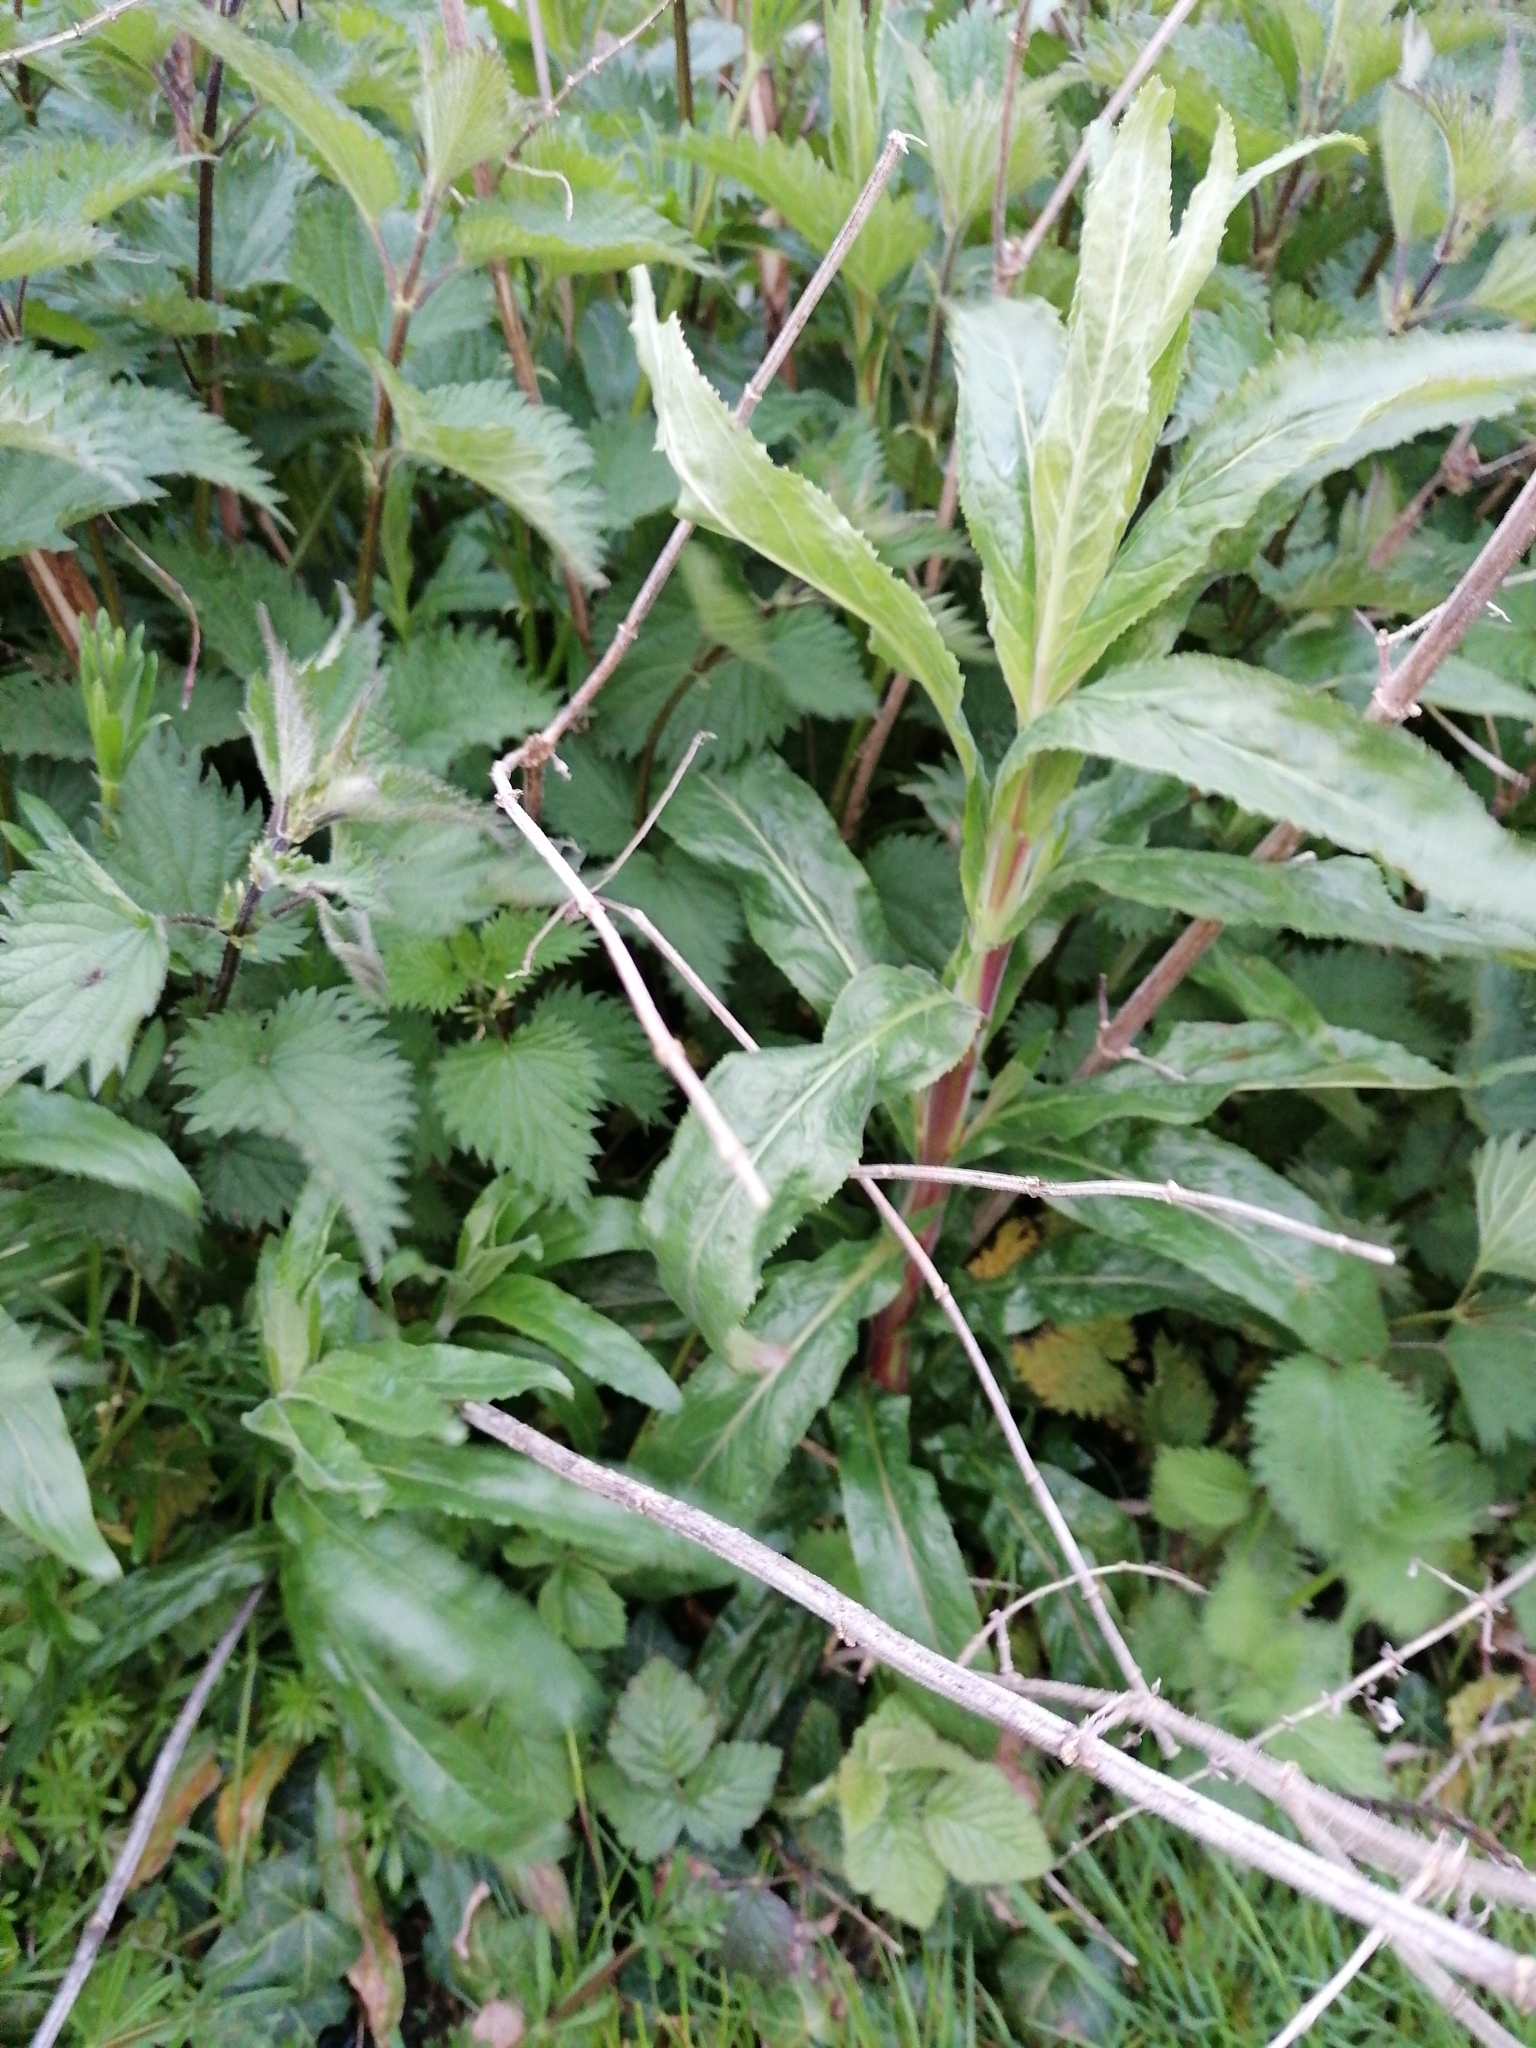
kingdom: Plantae
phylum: Tracheophyta
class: Magnoliopsida
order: Myrtales
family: Onagraceae
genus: Epilobium
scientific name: Epilobium hirsutum
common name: Great willowherb
